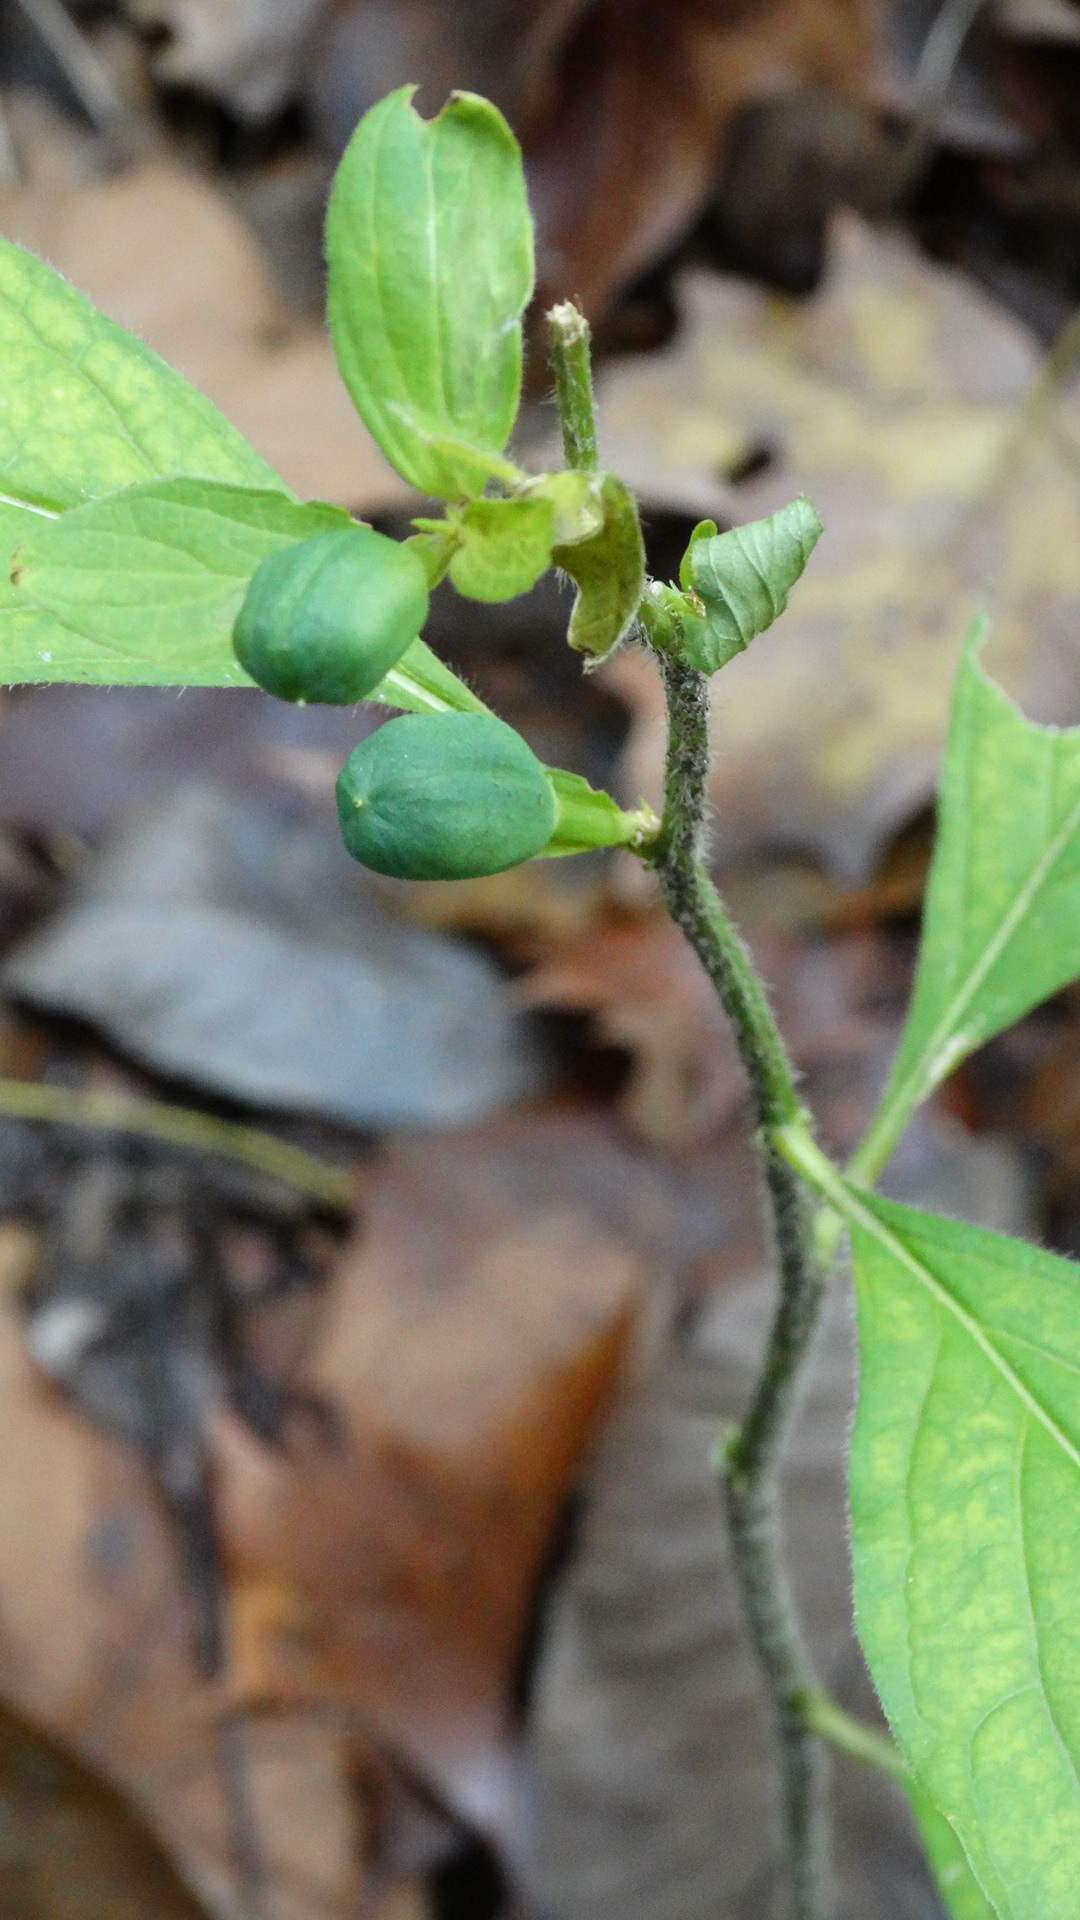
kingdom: Plantae
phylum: Tracheophyta
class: Magnoliopsida
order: Malpighiales
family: Violaceae
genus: Cubelium
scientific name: Cubelium concolor
